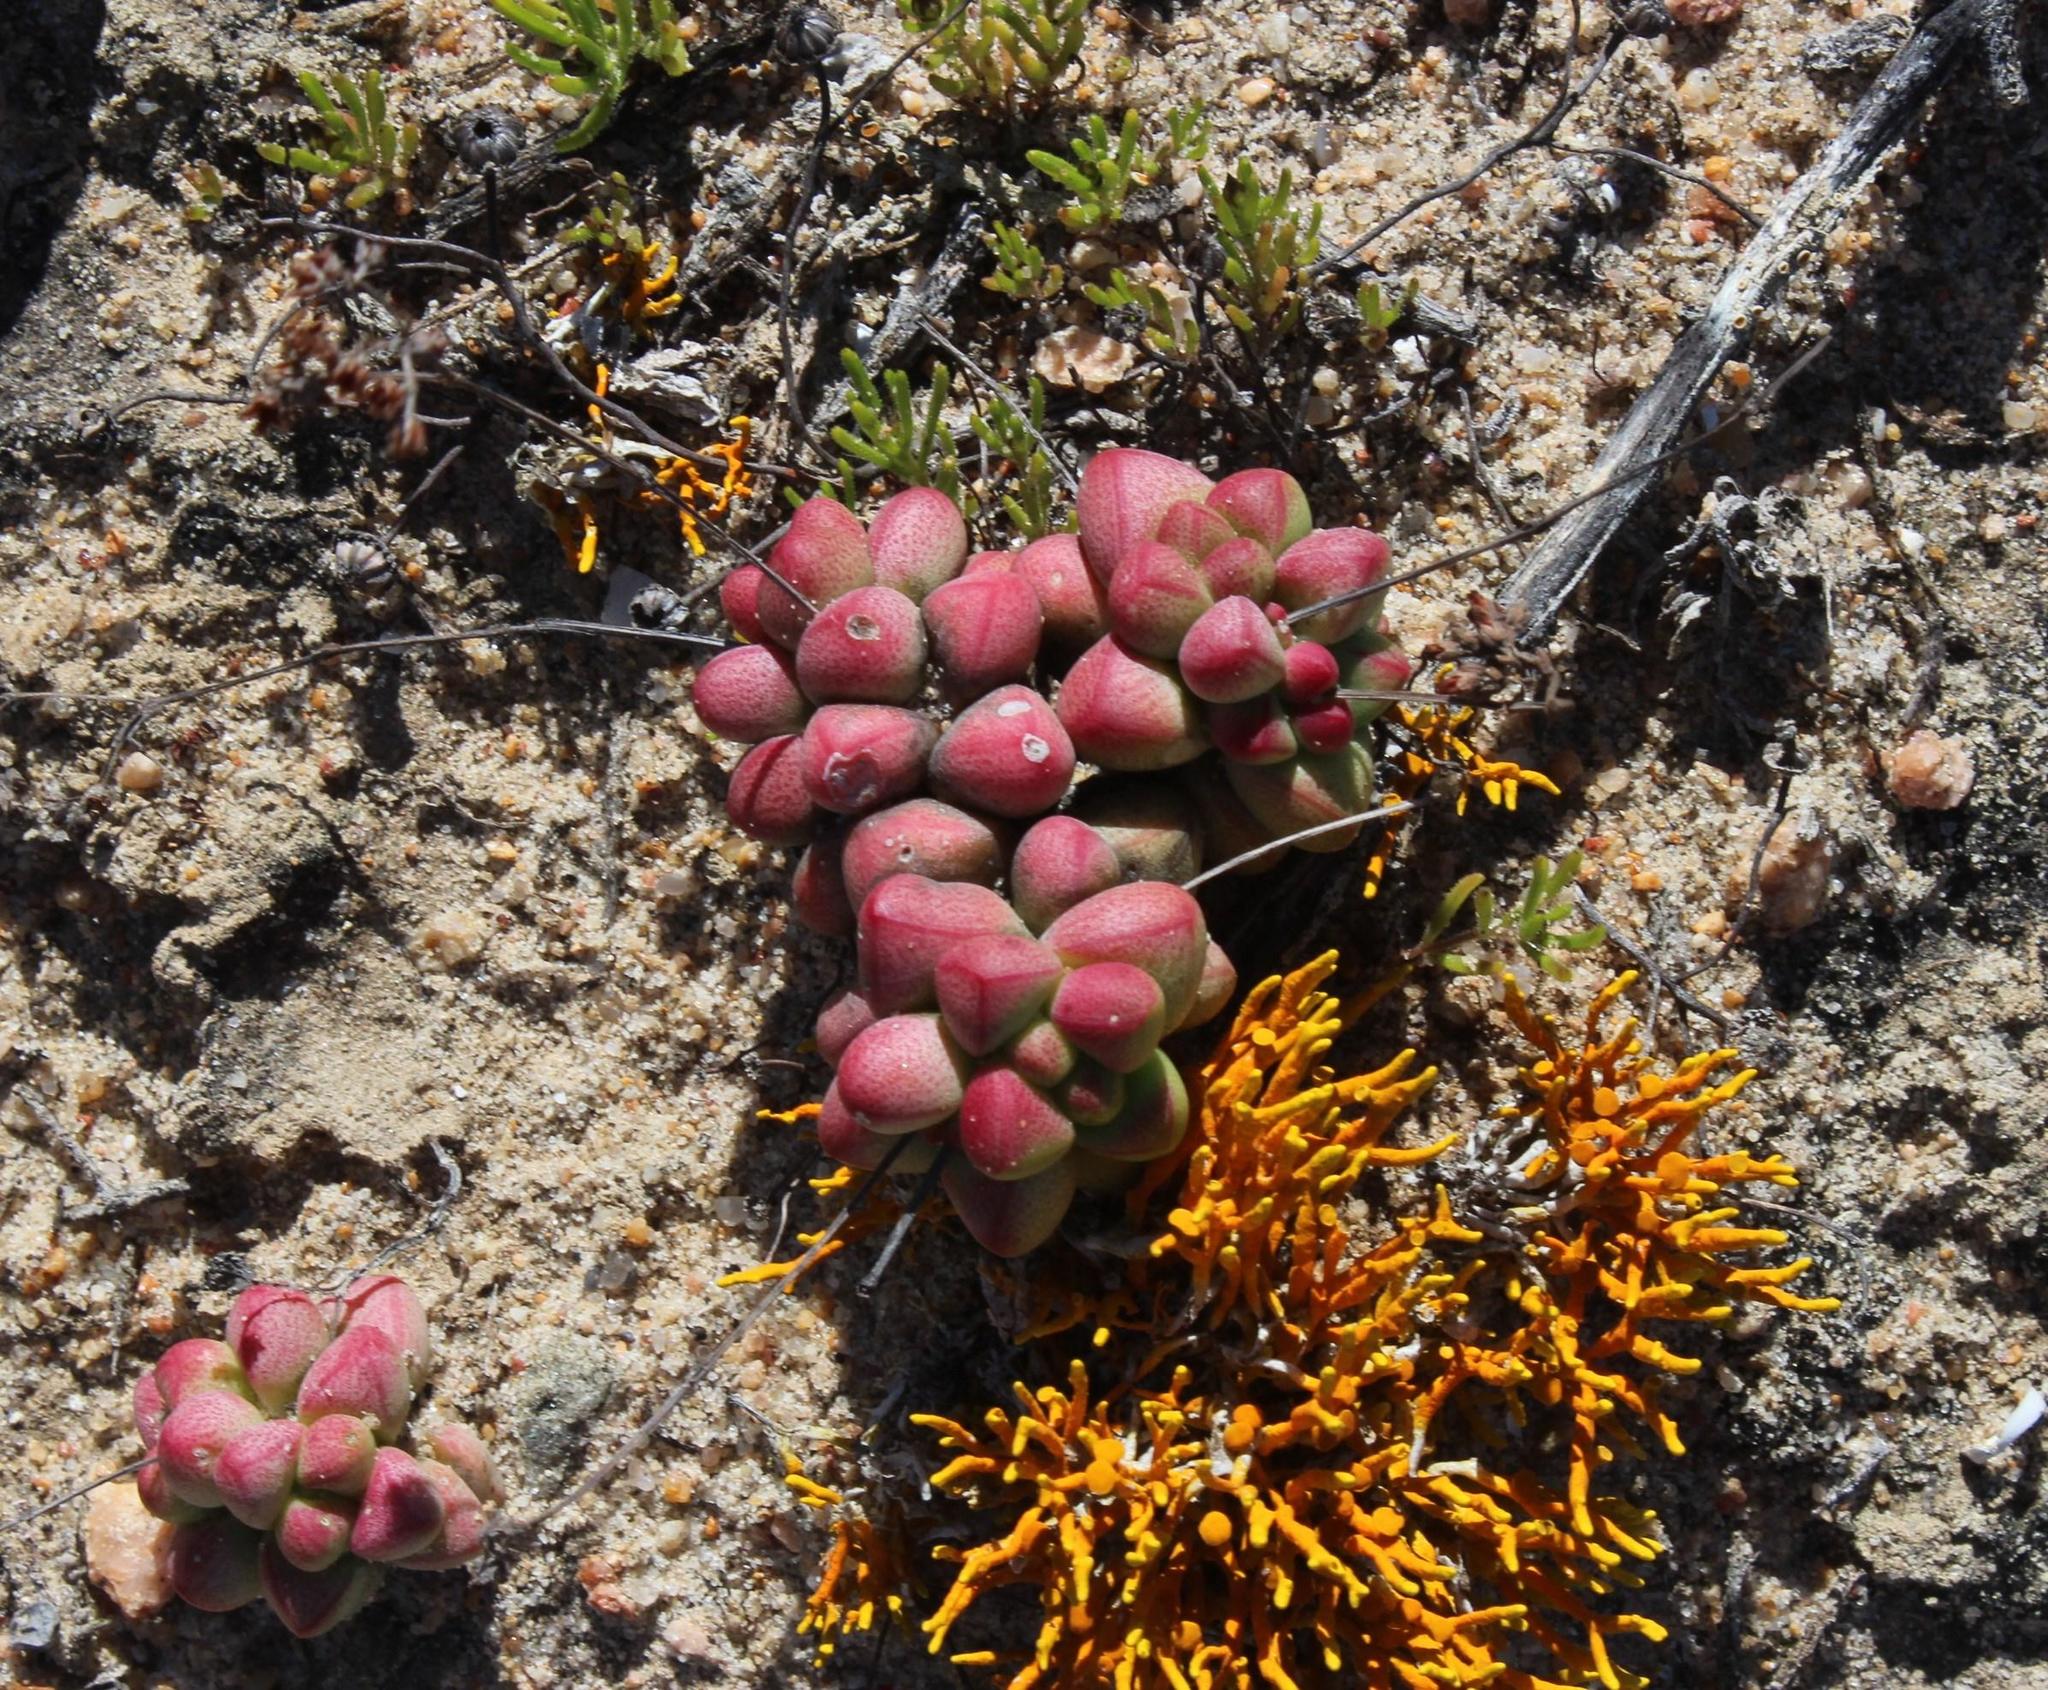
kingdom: Plantae
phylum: Tracheophyta
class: Magnoliopsida
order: Saxifragales
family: Crassulaceae
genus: Crassula
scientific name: Crassula elegans
